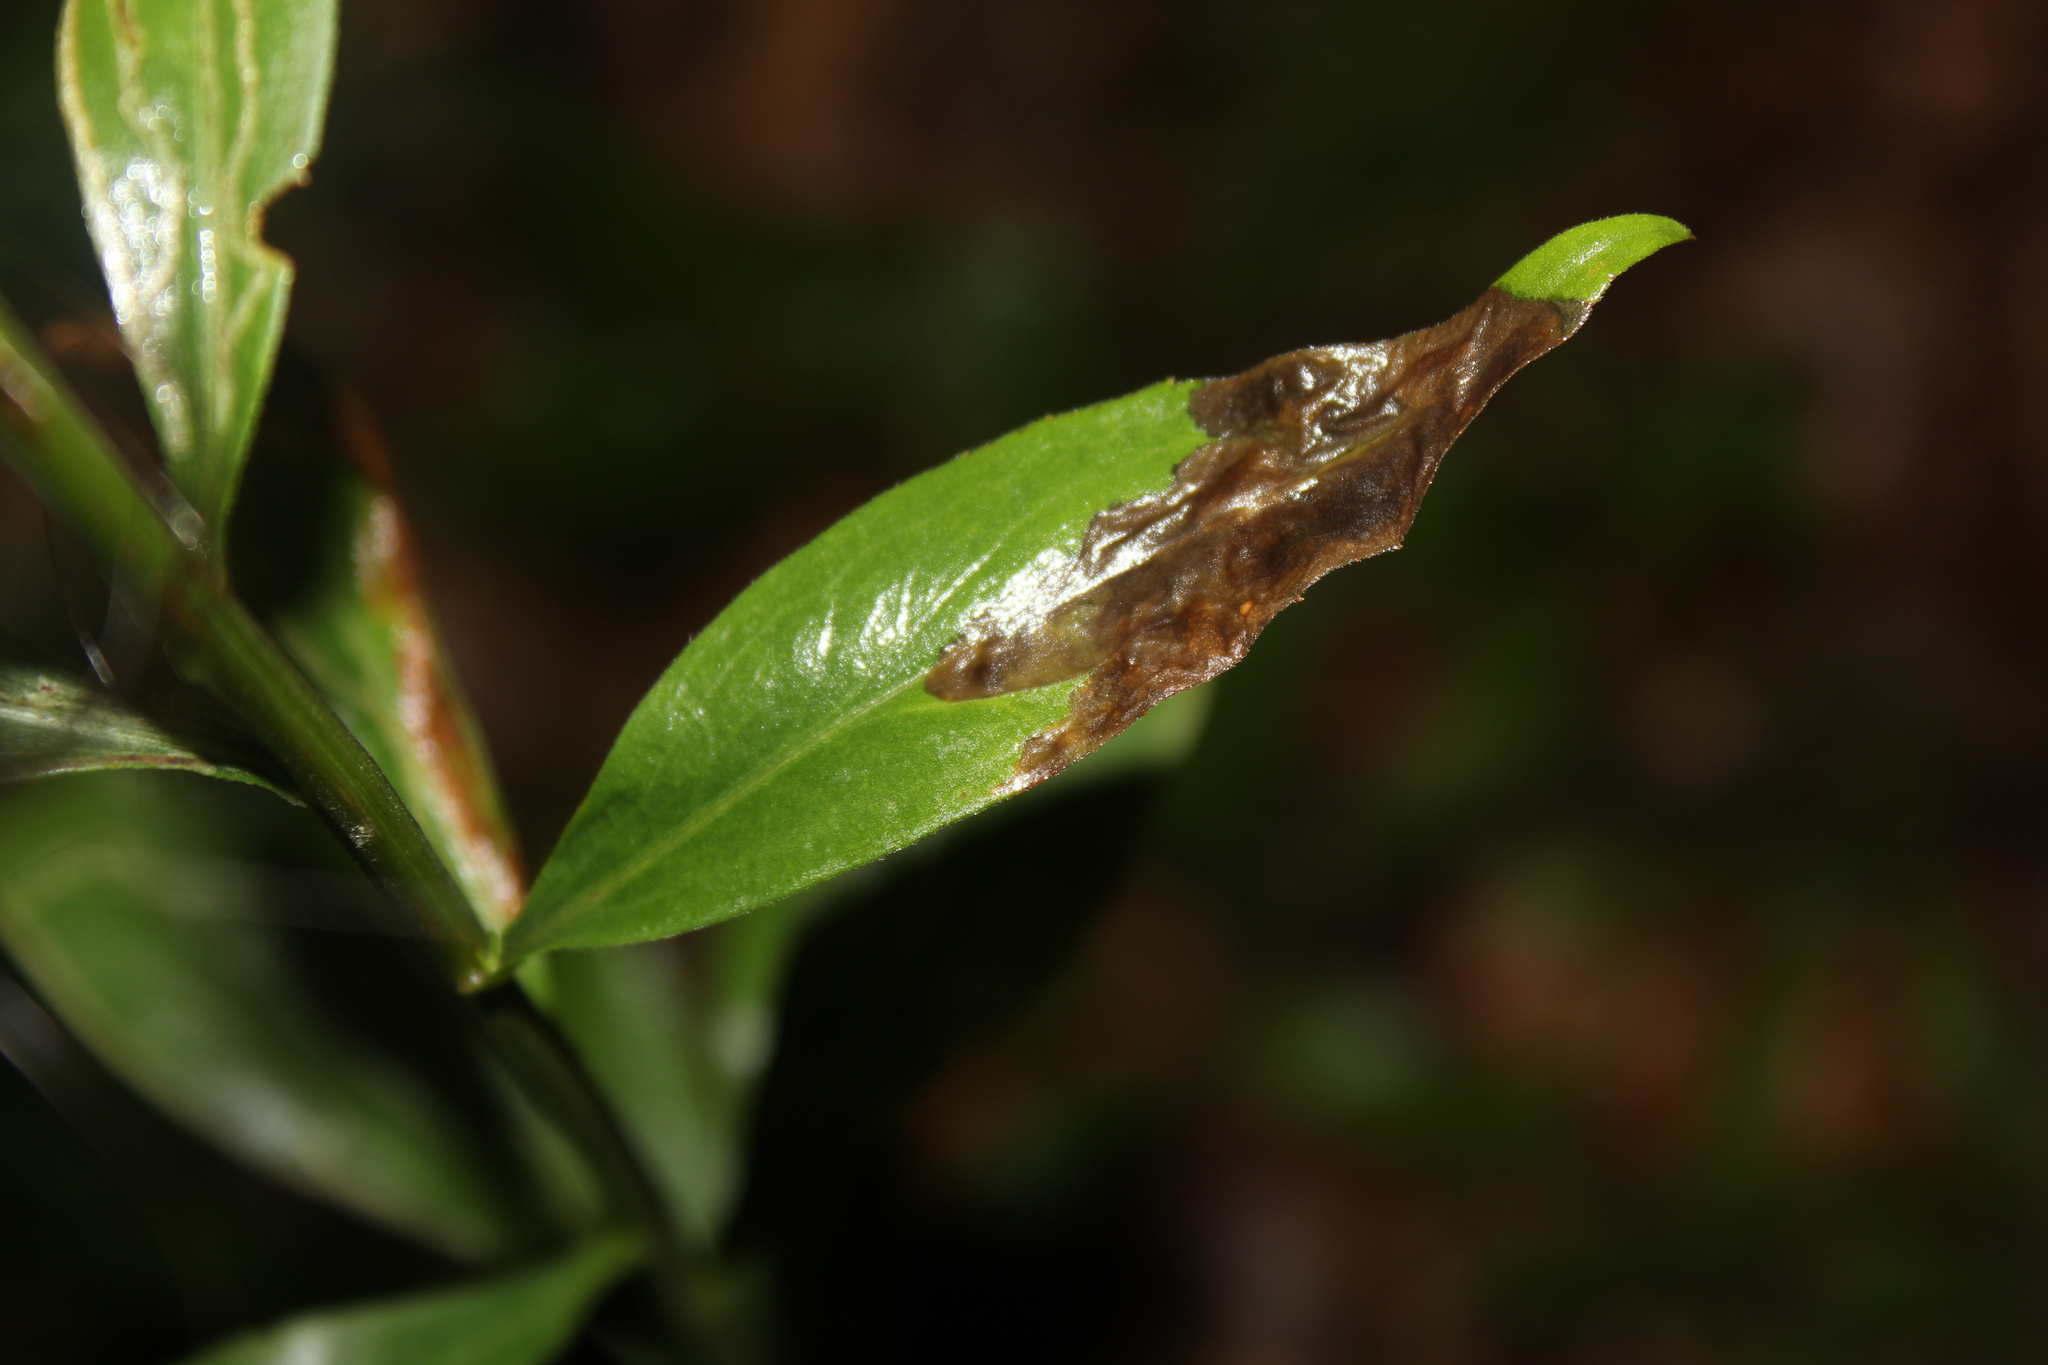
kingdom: Animalia
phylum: Arthropoda
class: Insecta
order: Diptera
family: Agromyzidae
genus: Nemorimyza
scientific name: Nemorimyza posticata
